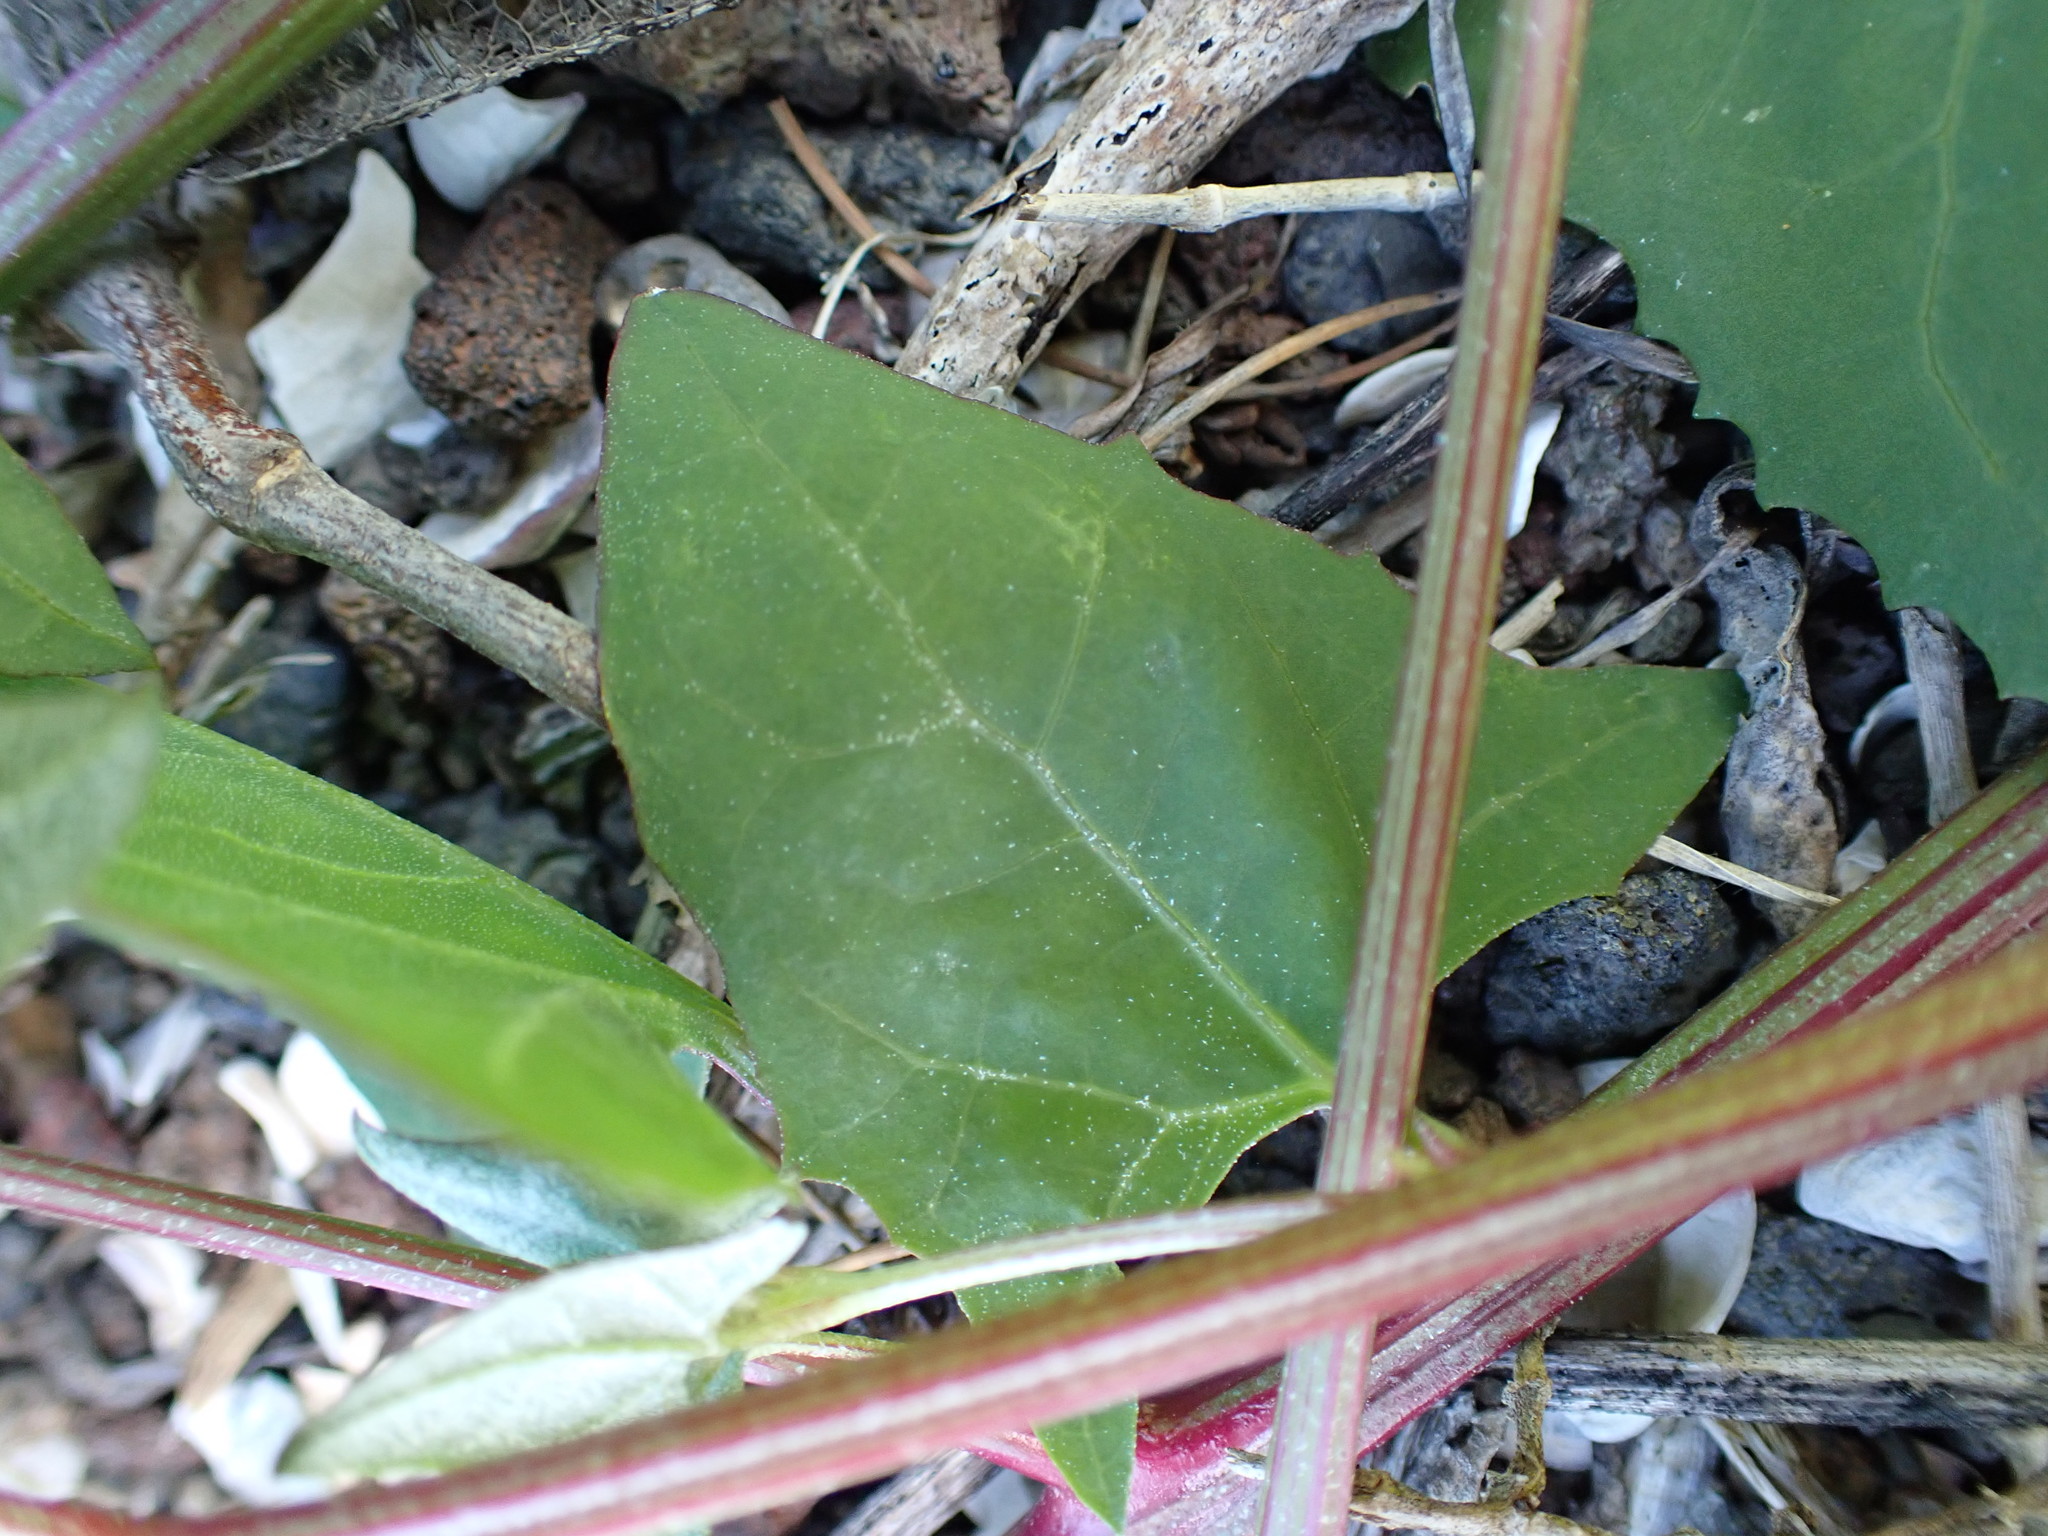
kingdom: Plantae
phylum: Tracheophyta
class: Magnoliopsida
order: Caryophyllales
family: Amaranthaceae
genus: Atriplex
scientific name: Atriplex prostrata
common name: Spear-leaved orache
